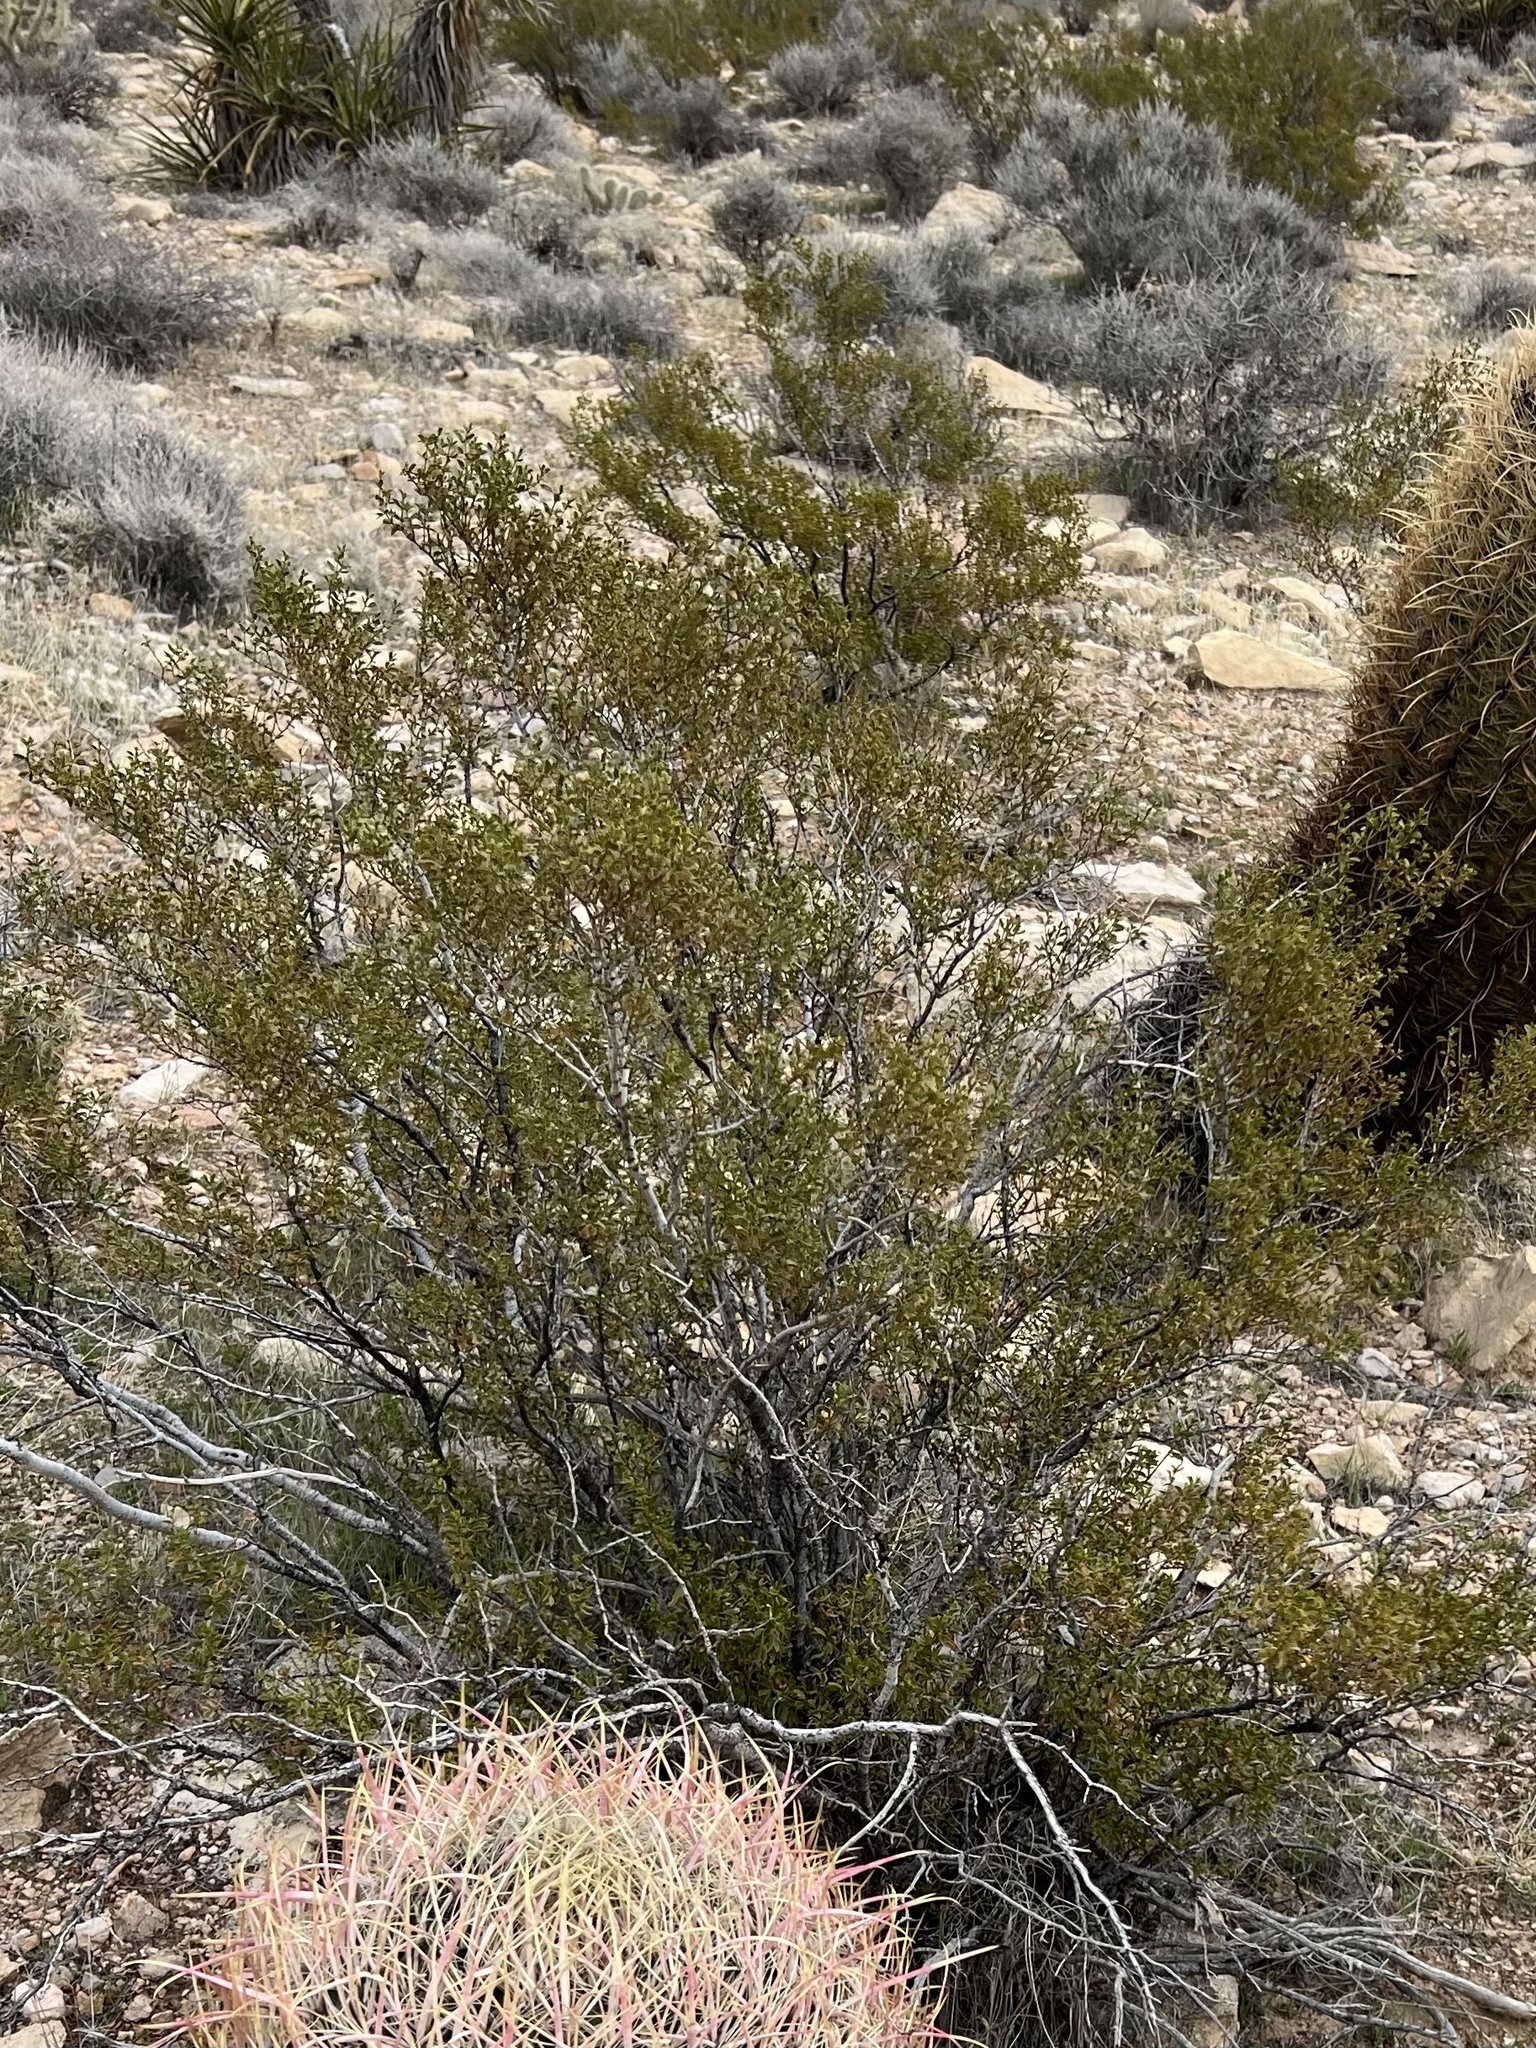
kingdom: Plantae
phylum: Tracheophyta
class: Magnoliopsida
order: Zygophyllales
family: Zygophyllaceae
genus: Larrea
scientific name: Larrea tridentata
